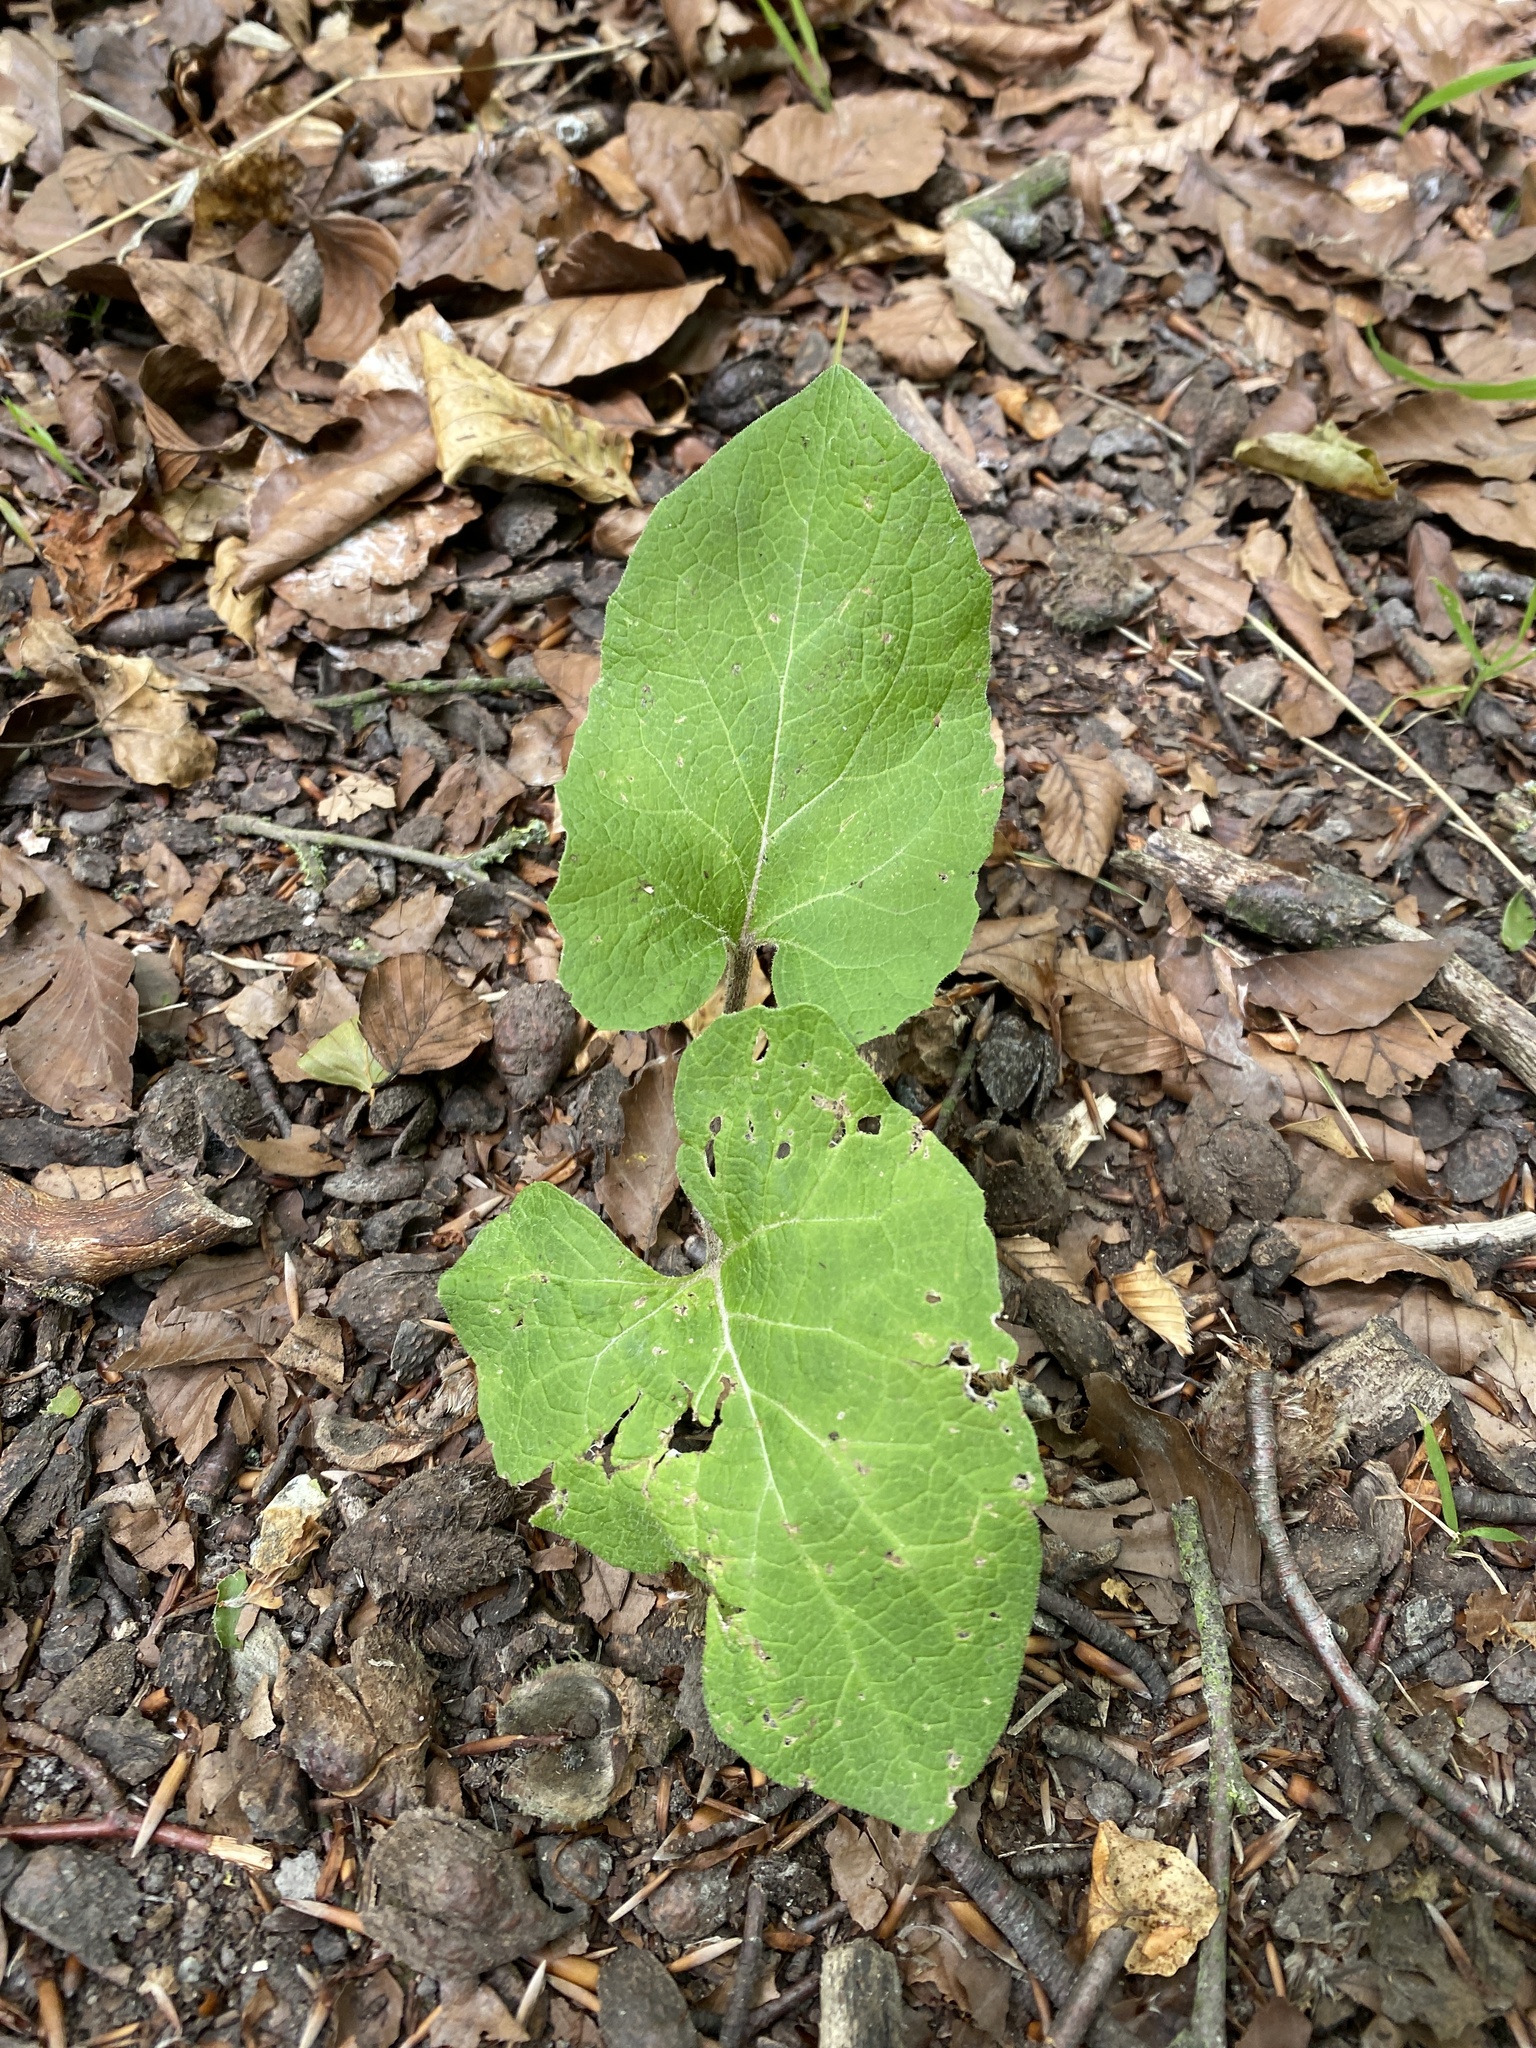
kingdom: Plantae
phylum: Tracheophyta
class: Magnoliopsida
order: Asterales
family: Asteraceae
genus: Arctium
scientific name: Arctium minus
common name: Lesser burdock
